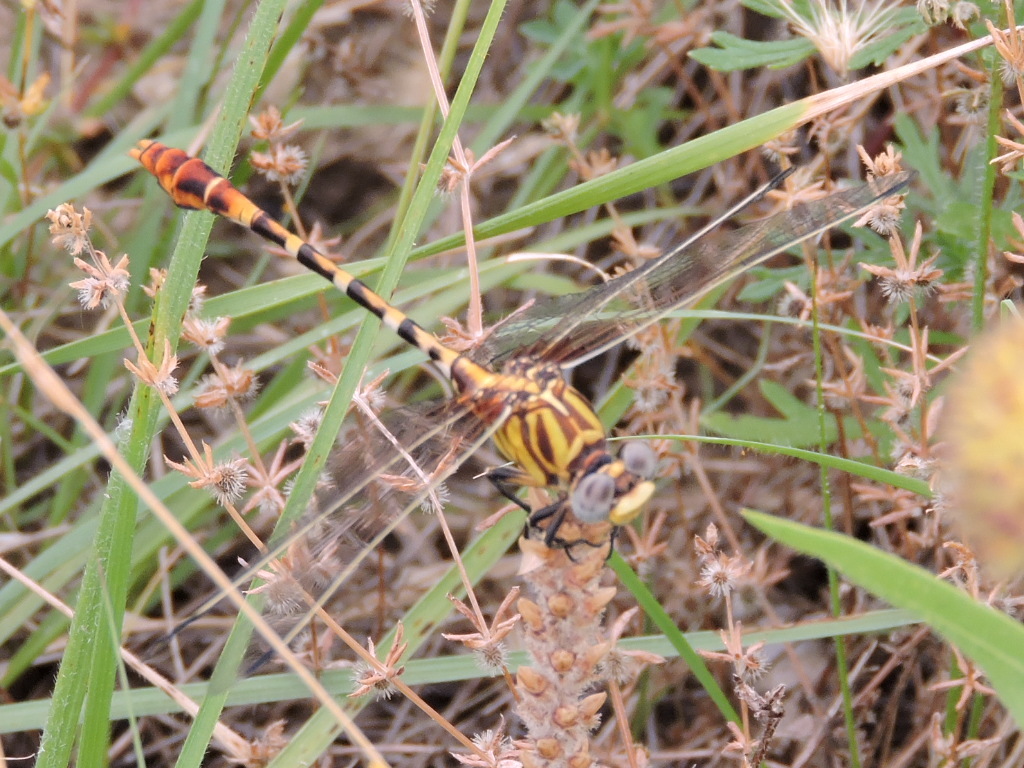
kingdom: Animalia
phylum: Arthropoda
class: Insecta
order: Odonata
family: Gomphidae
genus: Erpetogomphus
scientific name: Erpetogomphus designatus
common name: Eastern ringtail
